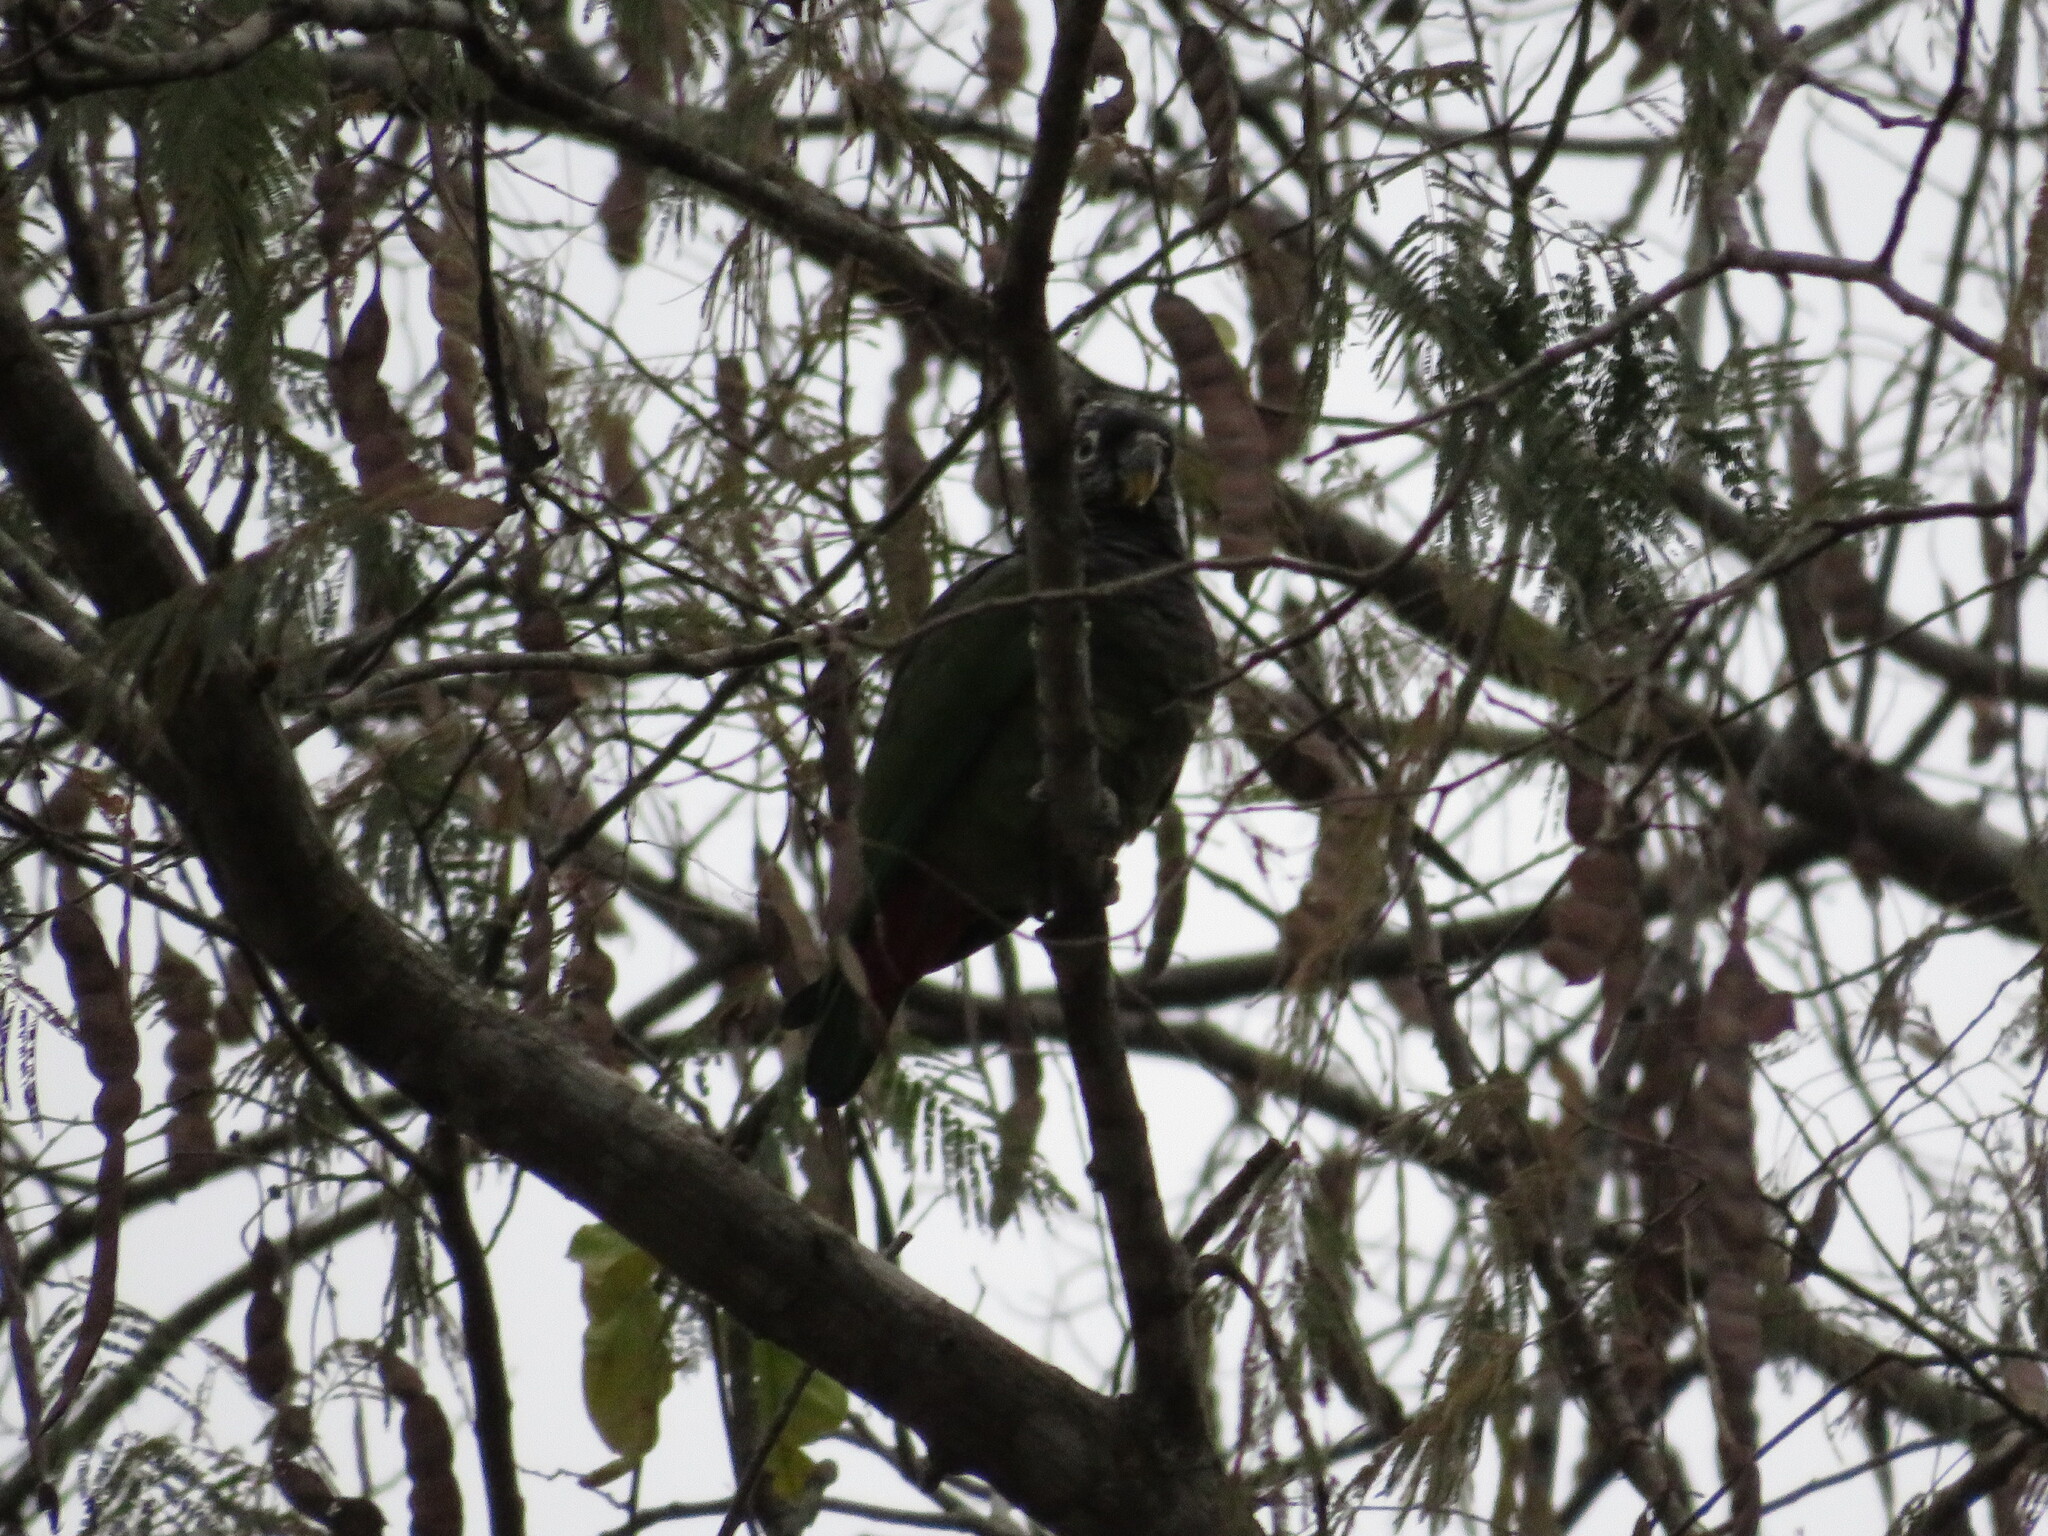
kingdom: Animalia
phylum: Chordata
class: Aves
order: Psittaciformes
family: Psittacidae
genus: Pionus
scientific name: Pionus maximiliani
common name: Scaly-headed parrot
